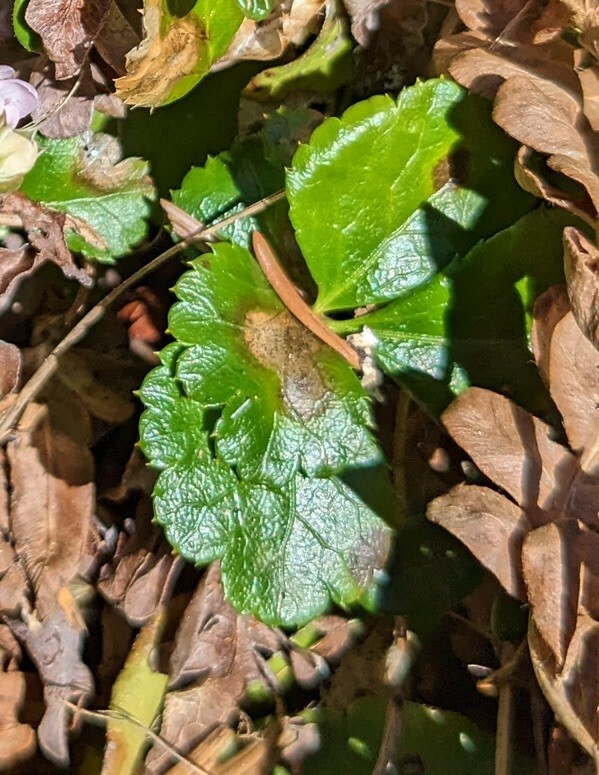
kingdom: Plantae
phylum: Tracheophyta
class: Magnoliopsida
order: Ranunculales
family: Ranunculaceae
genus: Coptis
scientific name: Coptis trifolia
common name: Canker-root
